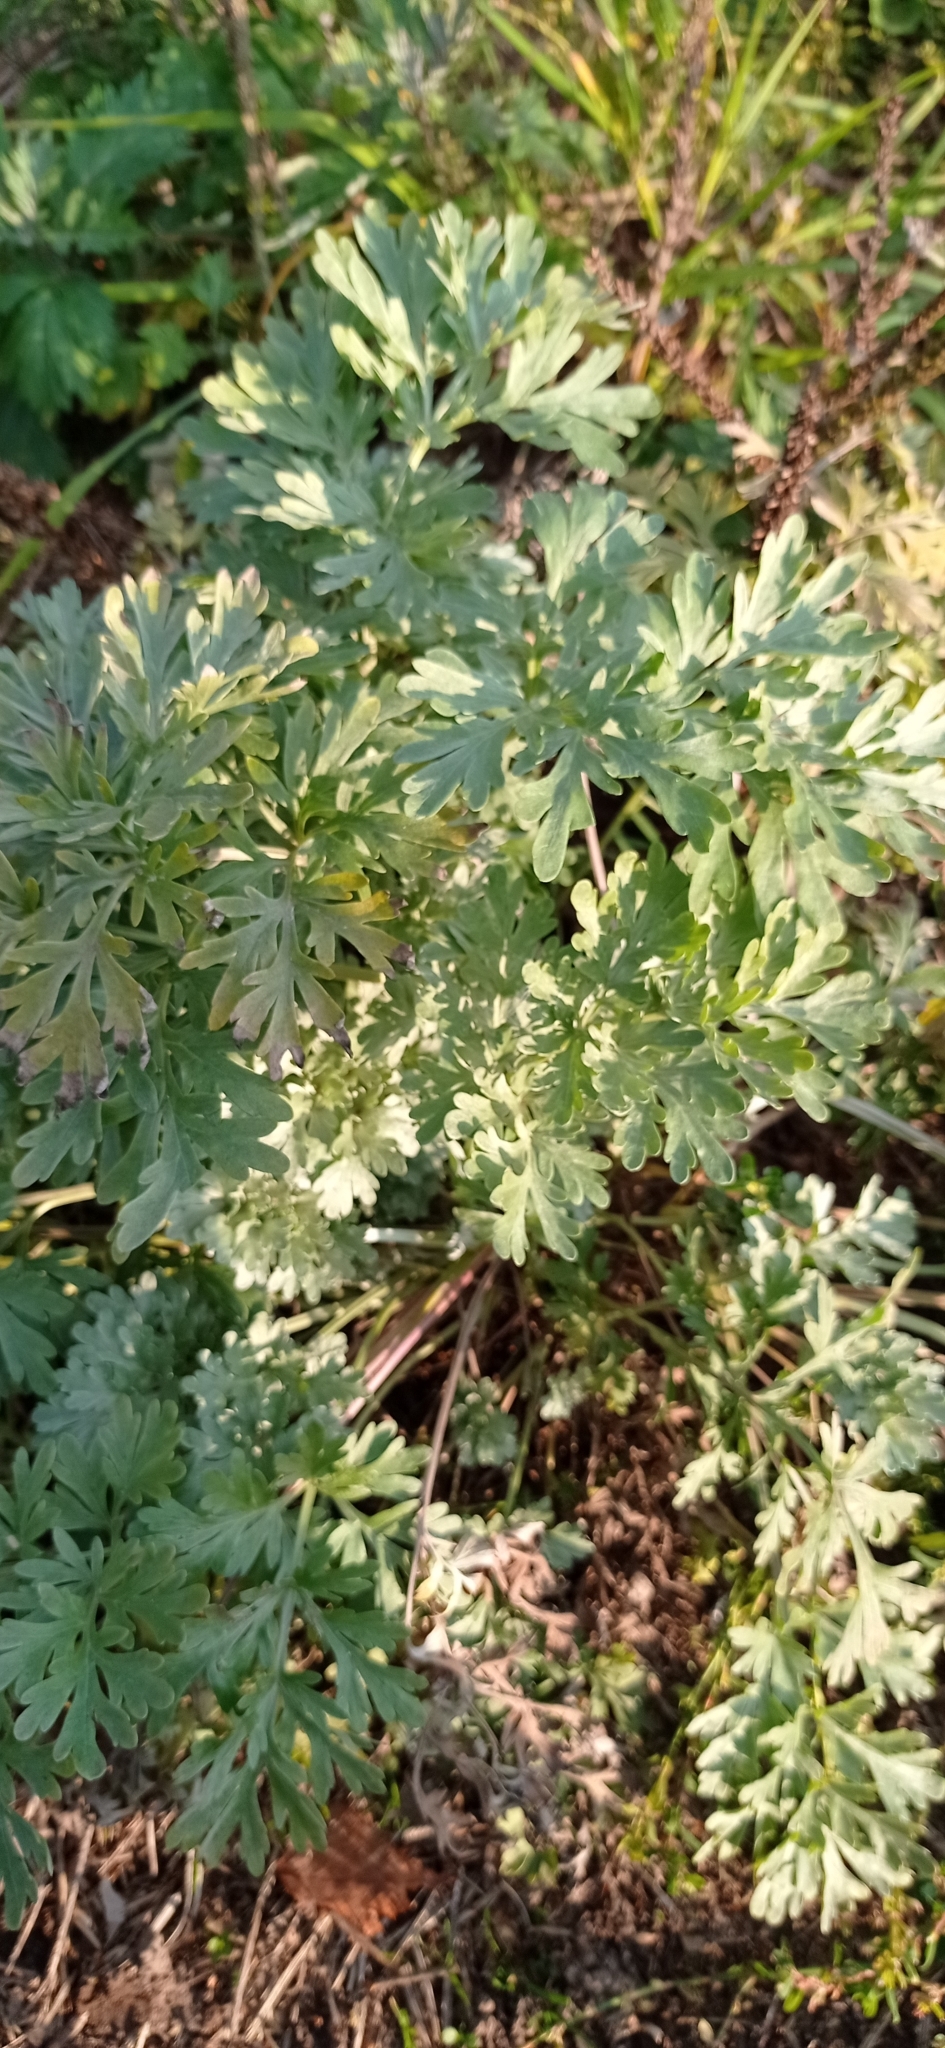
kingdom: Plantae
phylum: Tracheophyta
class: Magnoliopsida
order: Asterales
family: Asteraceae
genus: Artemisia
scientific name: Artemisia absinthium
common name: Wormwood
